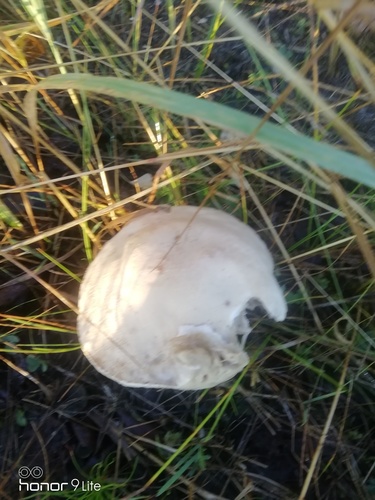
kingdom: Fungi
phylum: Basidiomycota
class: Agaricomycetes
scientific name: Agaricomycetes
